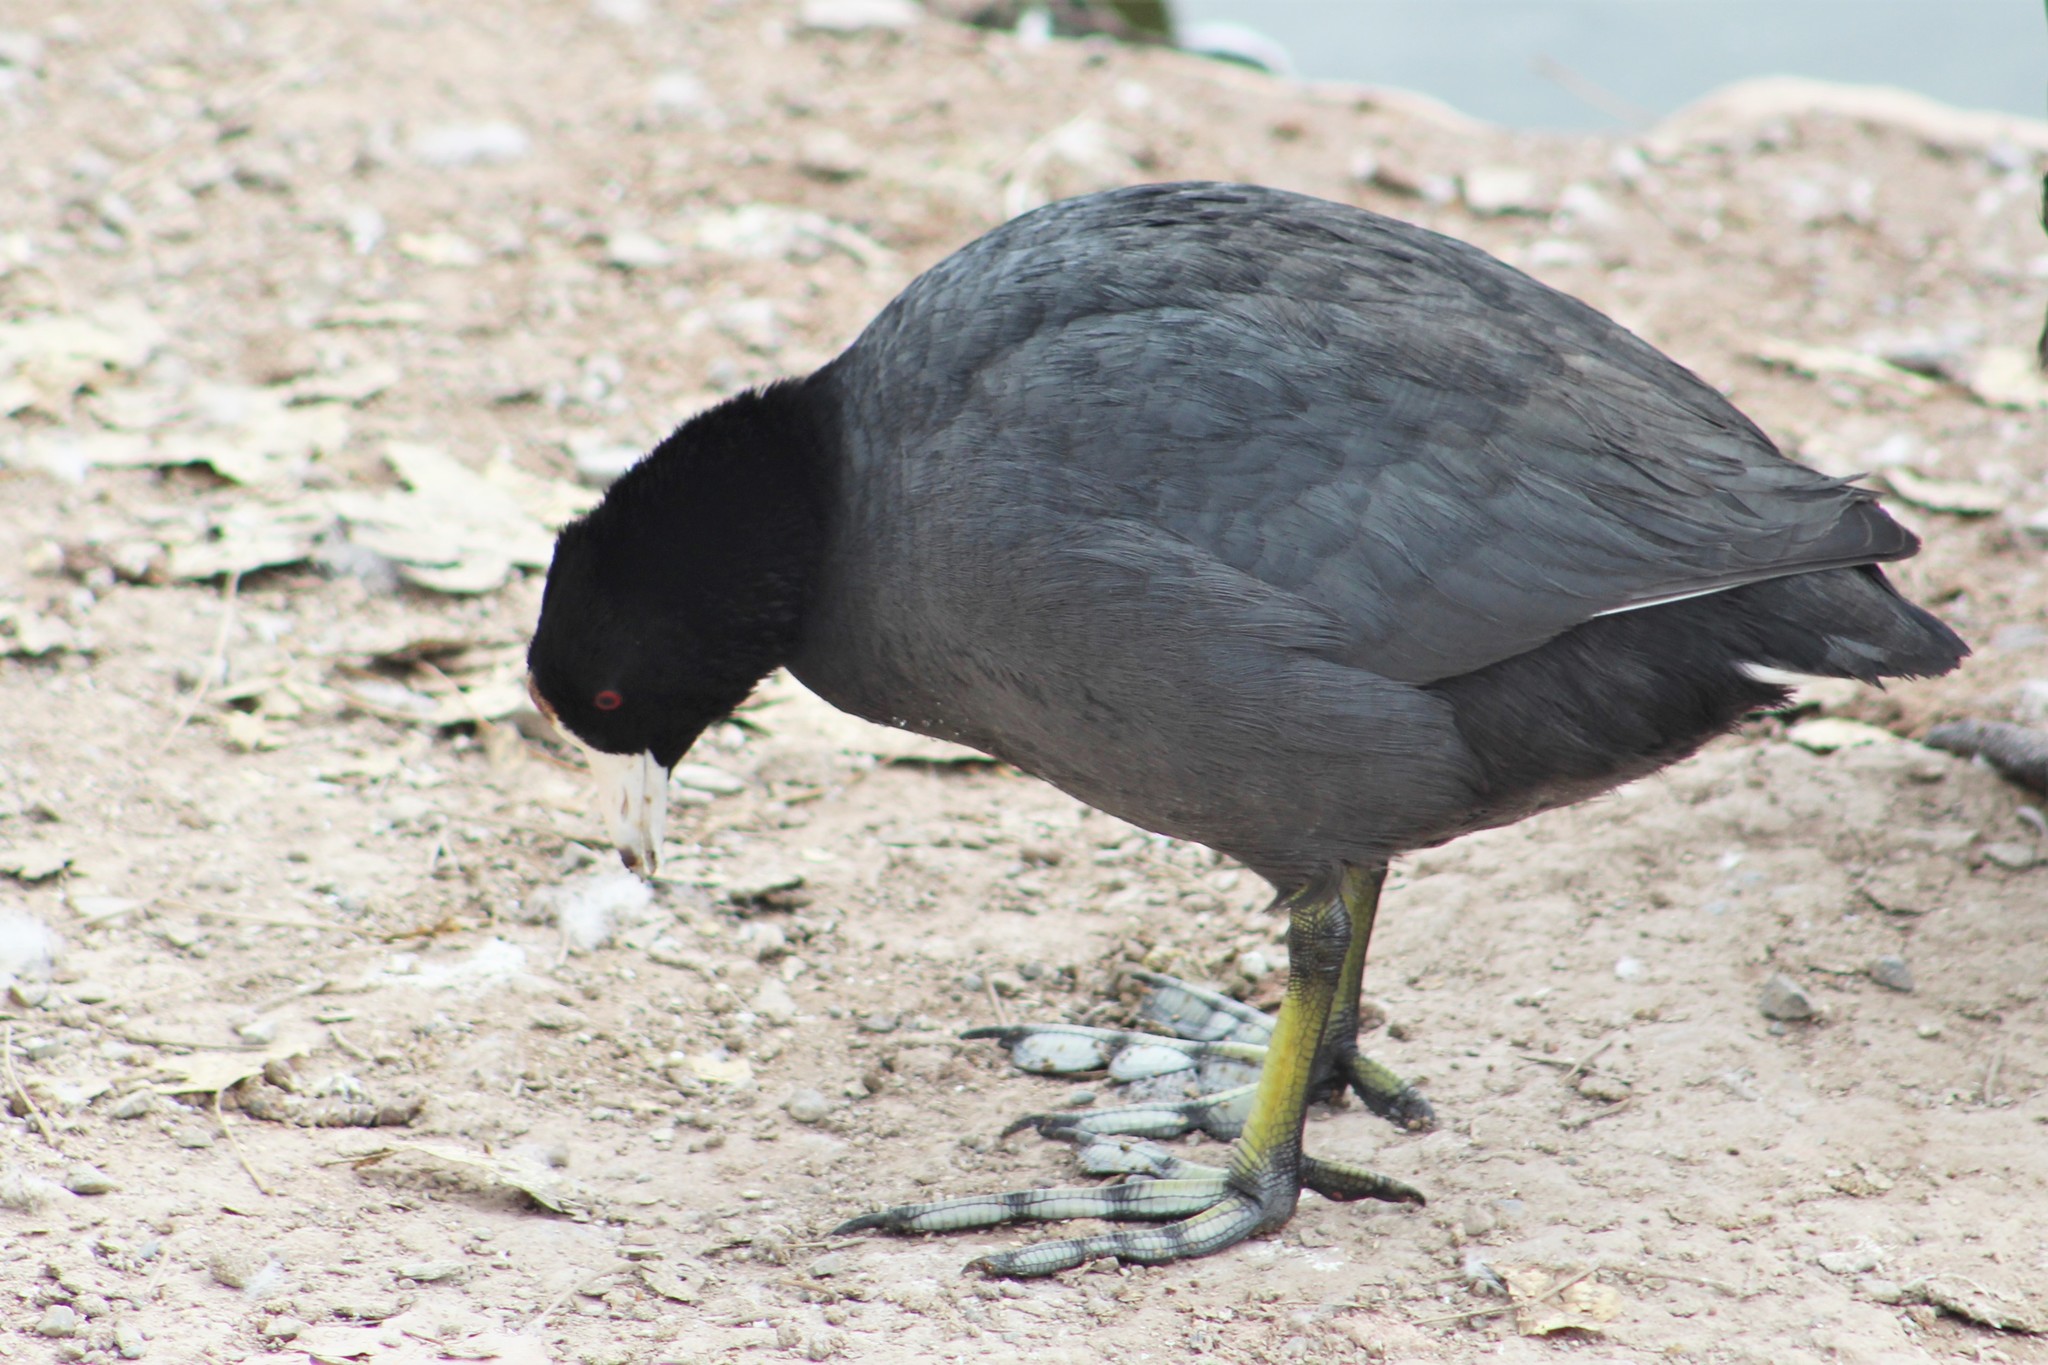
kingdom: Animalia
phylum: Chordata
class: Aves
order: Gruiformes
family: Rallidae
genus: Fulica
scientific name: Fulica americana
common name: American coot
